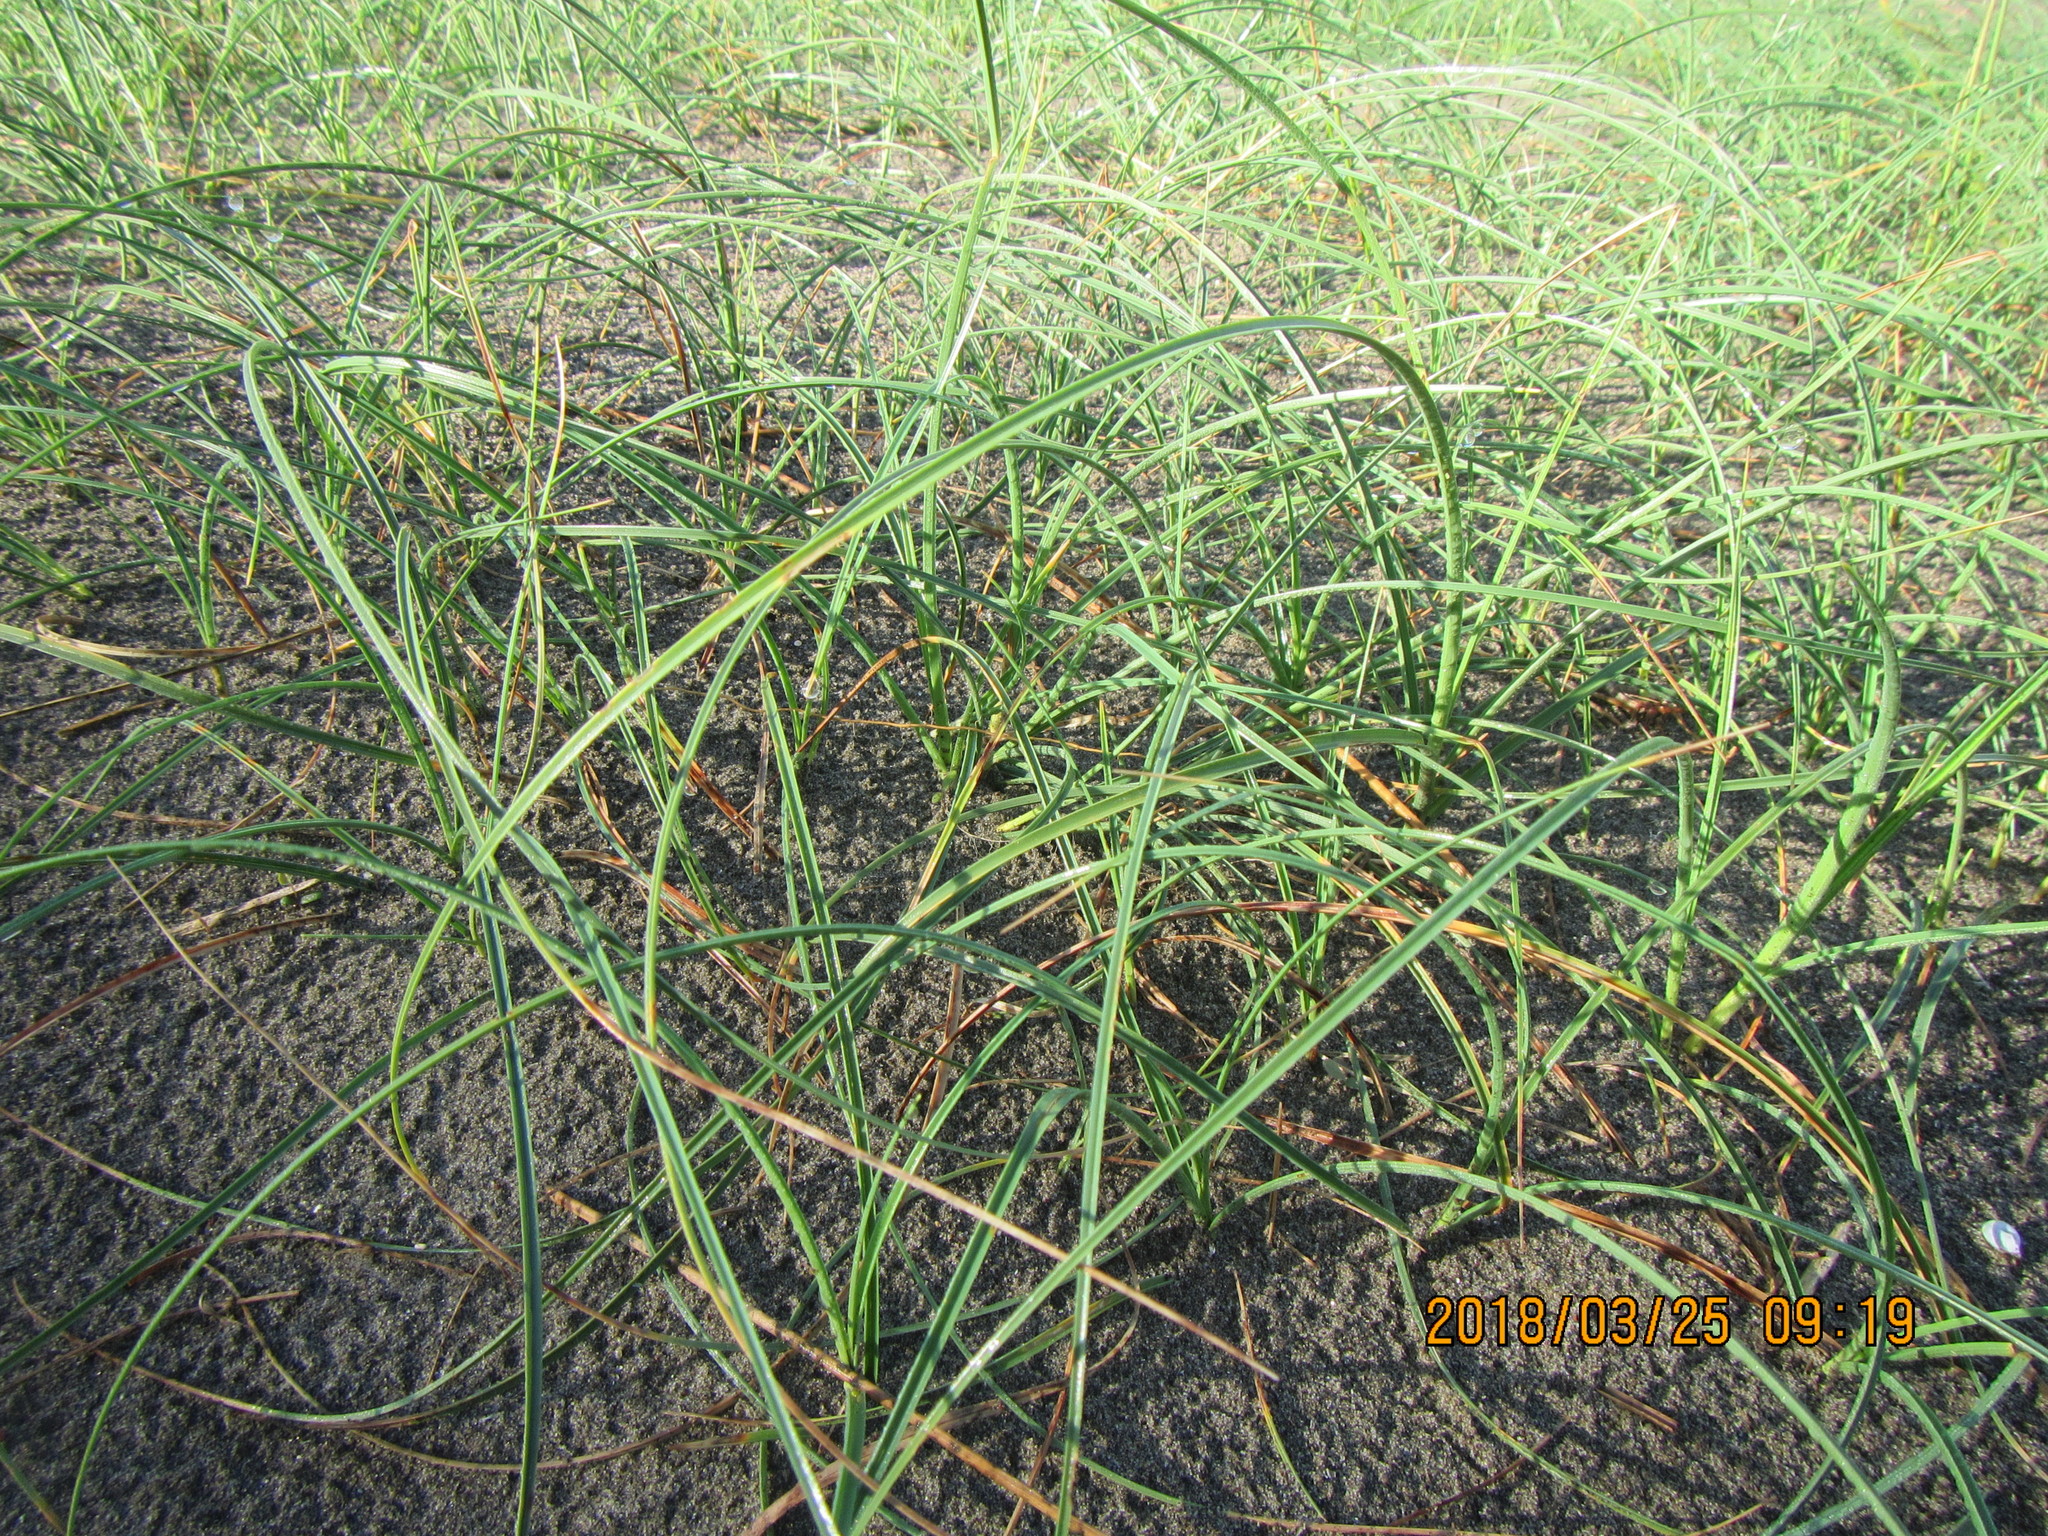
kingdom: Plantae
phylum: Tracheophyta
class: Liliopsida
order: Poales
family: Cyperaceae
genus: Carex
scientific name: Carex pumila
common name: Dwarf sedge
